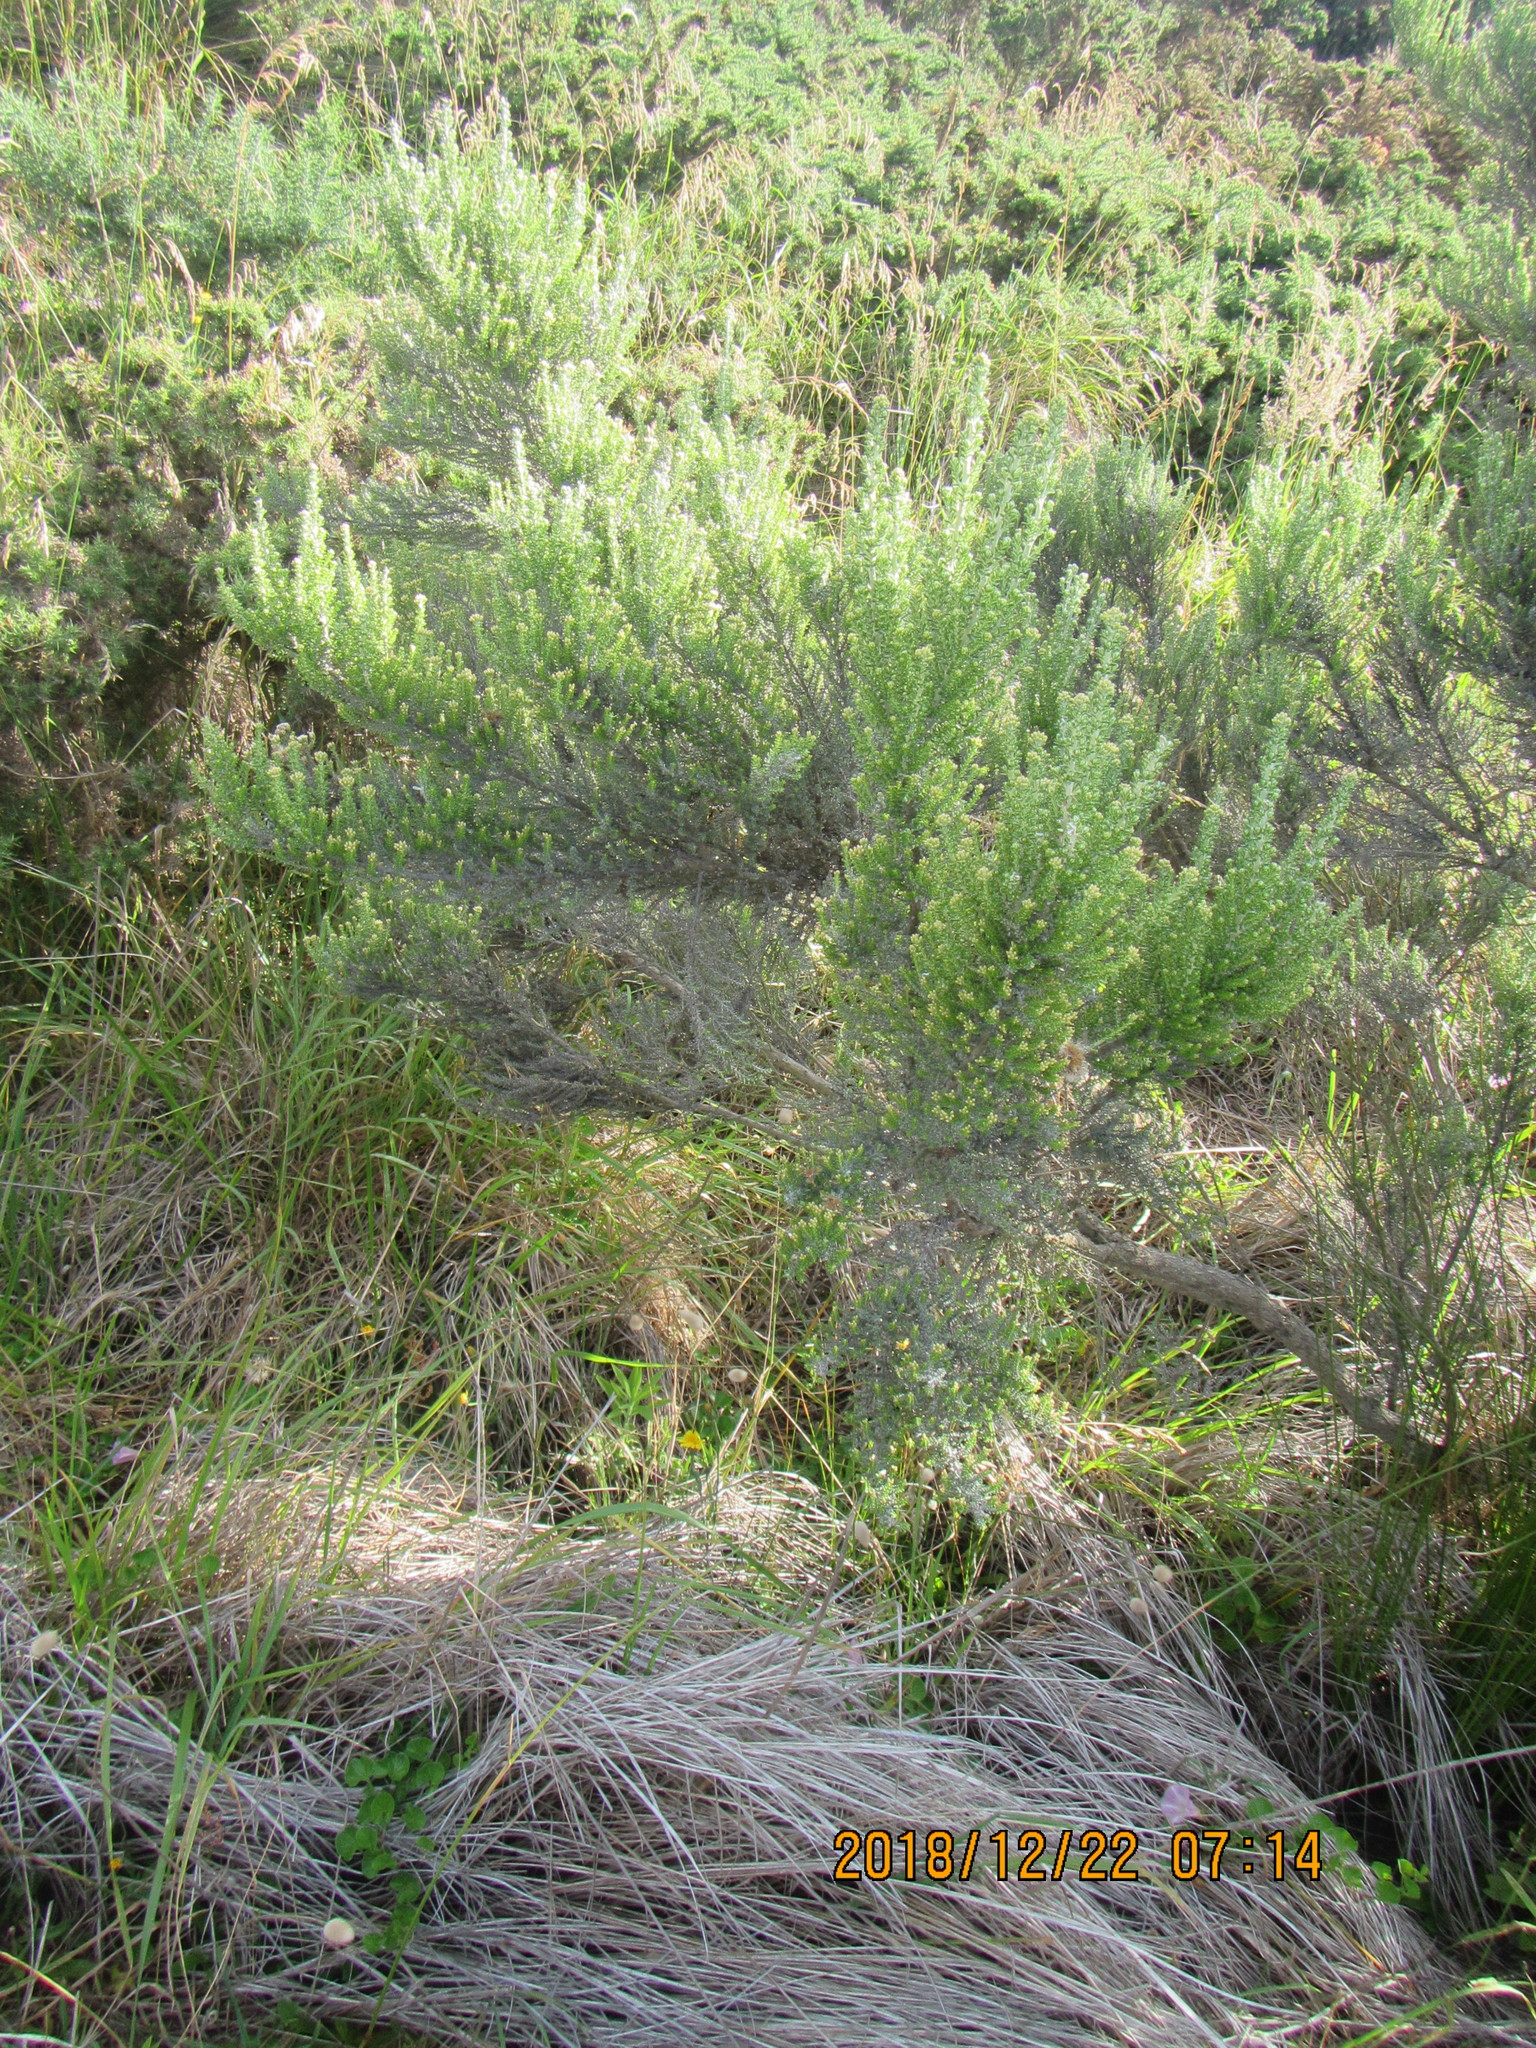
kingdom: Plantae
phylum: Tracheophyta
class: Magnoliopsida
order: Asterales
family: Asteraceae
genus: Ozothamnus
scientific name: Ozothamnus leptophyllus
